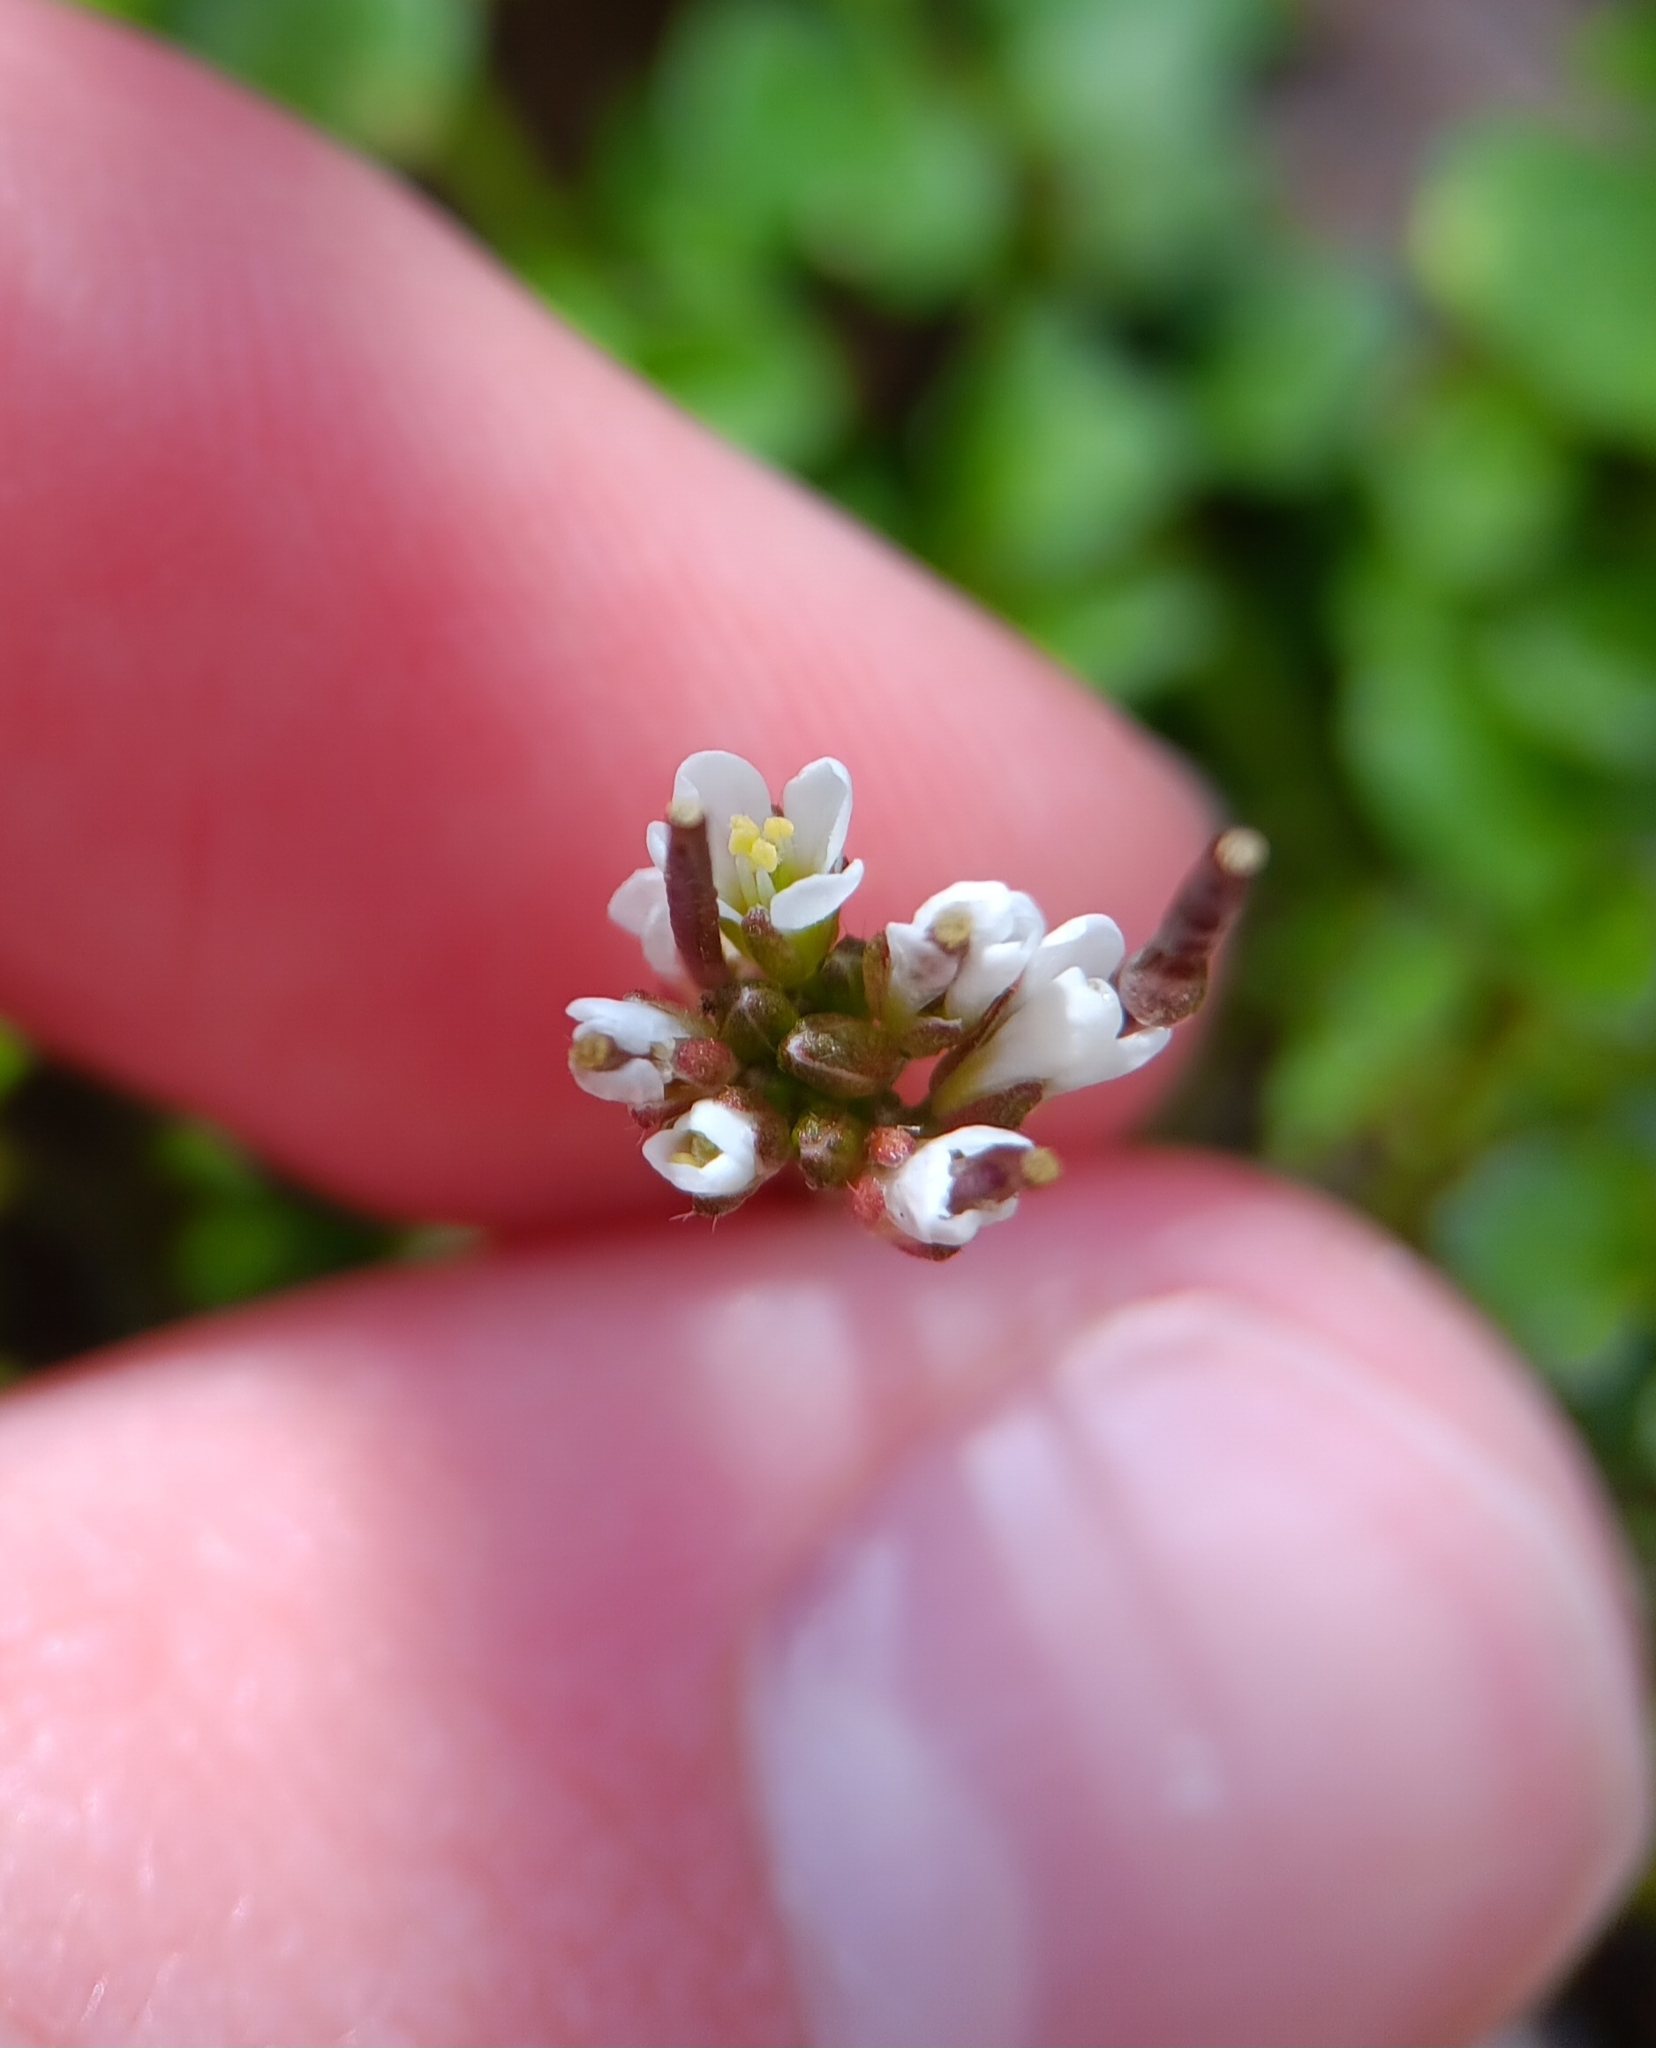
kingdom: Plantae
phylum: Tracheophyta
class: Magnoliopsida
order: Brassicales
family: Brassicaceae
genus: Cardamine
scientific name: Cardamine hirsuta
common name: Hairy bittercress
